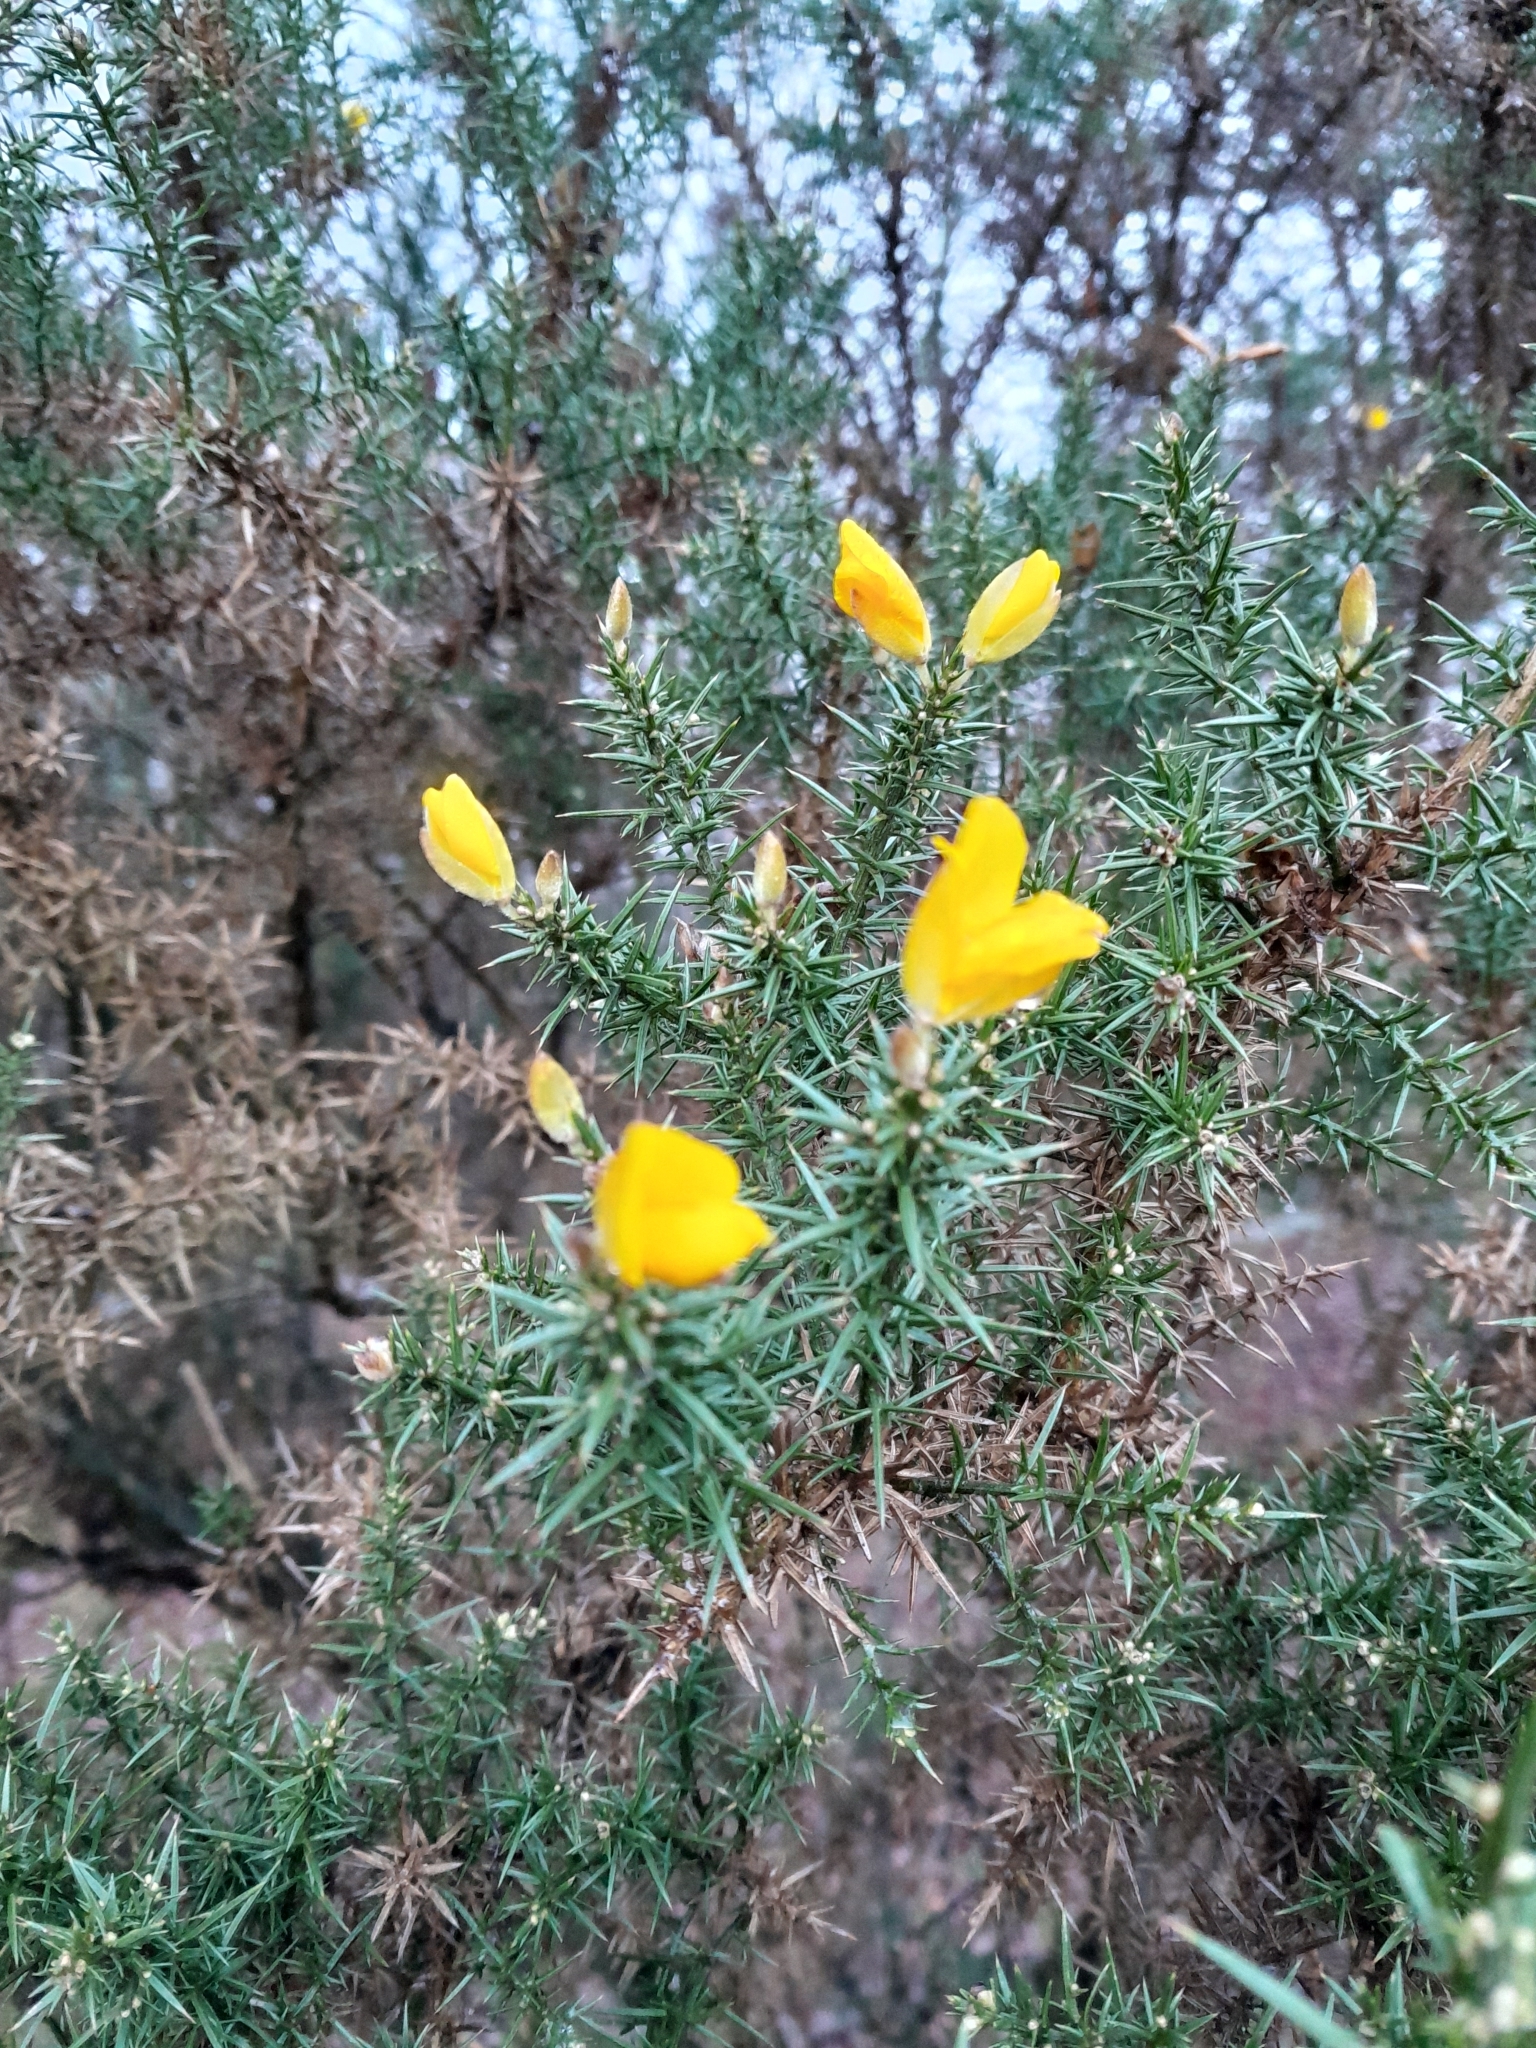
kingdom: Plantae
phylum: Tracheophyta
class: Magnoliopsida
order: Fabales
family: Fabaceae
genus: Ulex
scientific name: Ulex europaeus
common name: Common gorse
